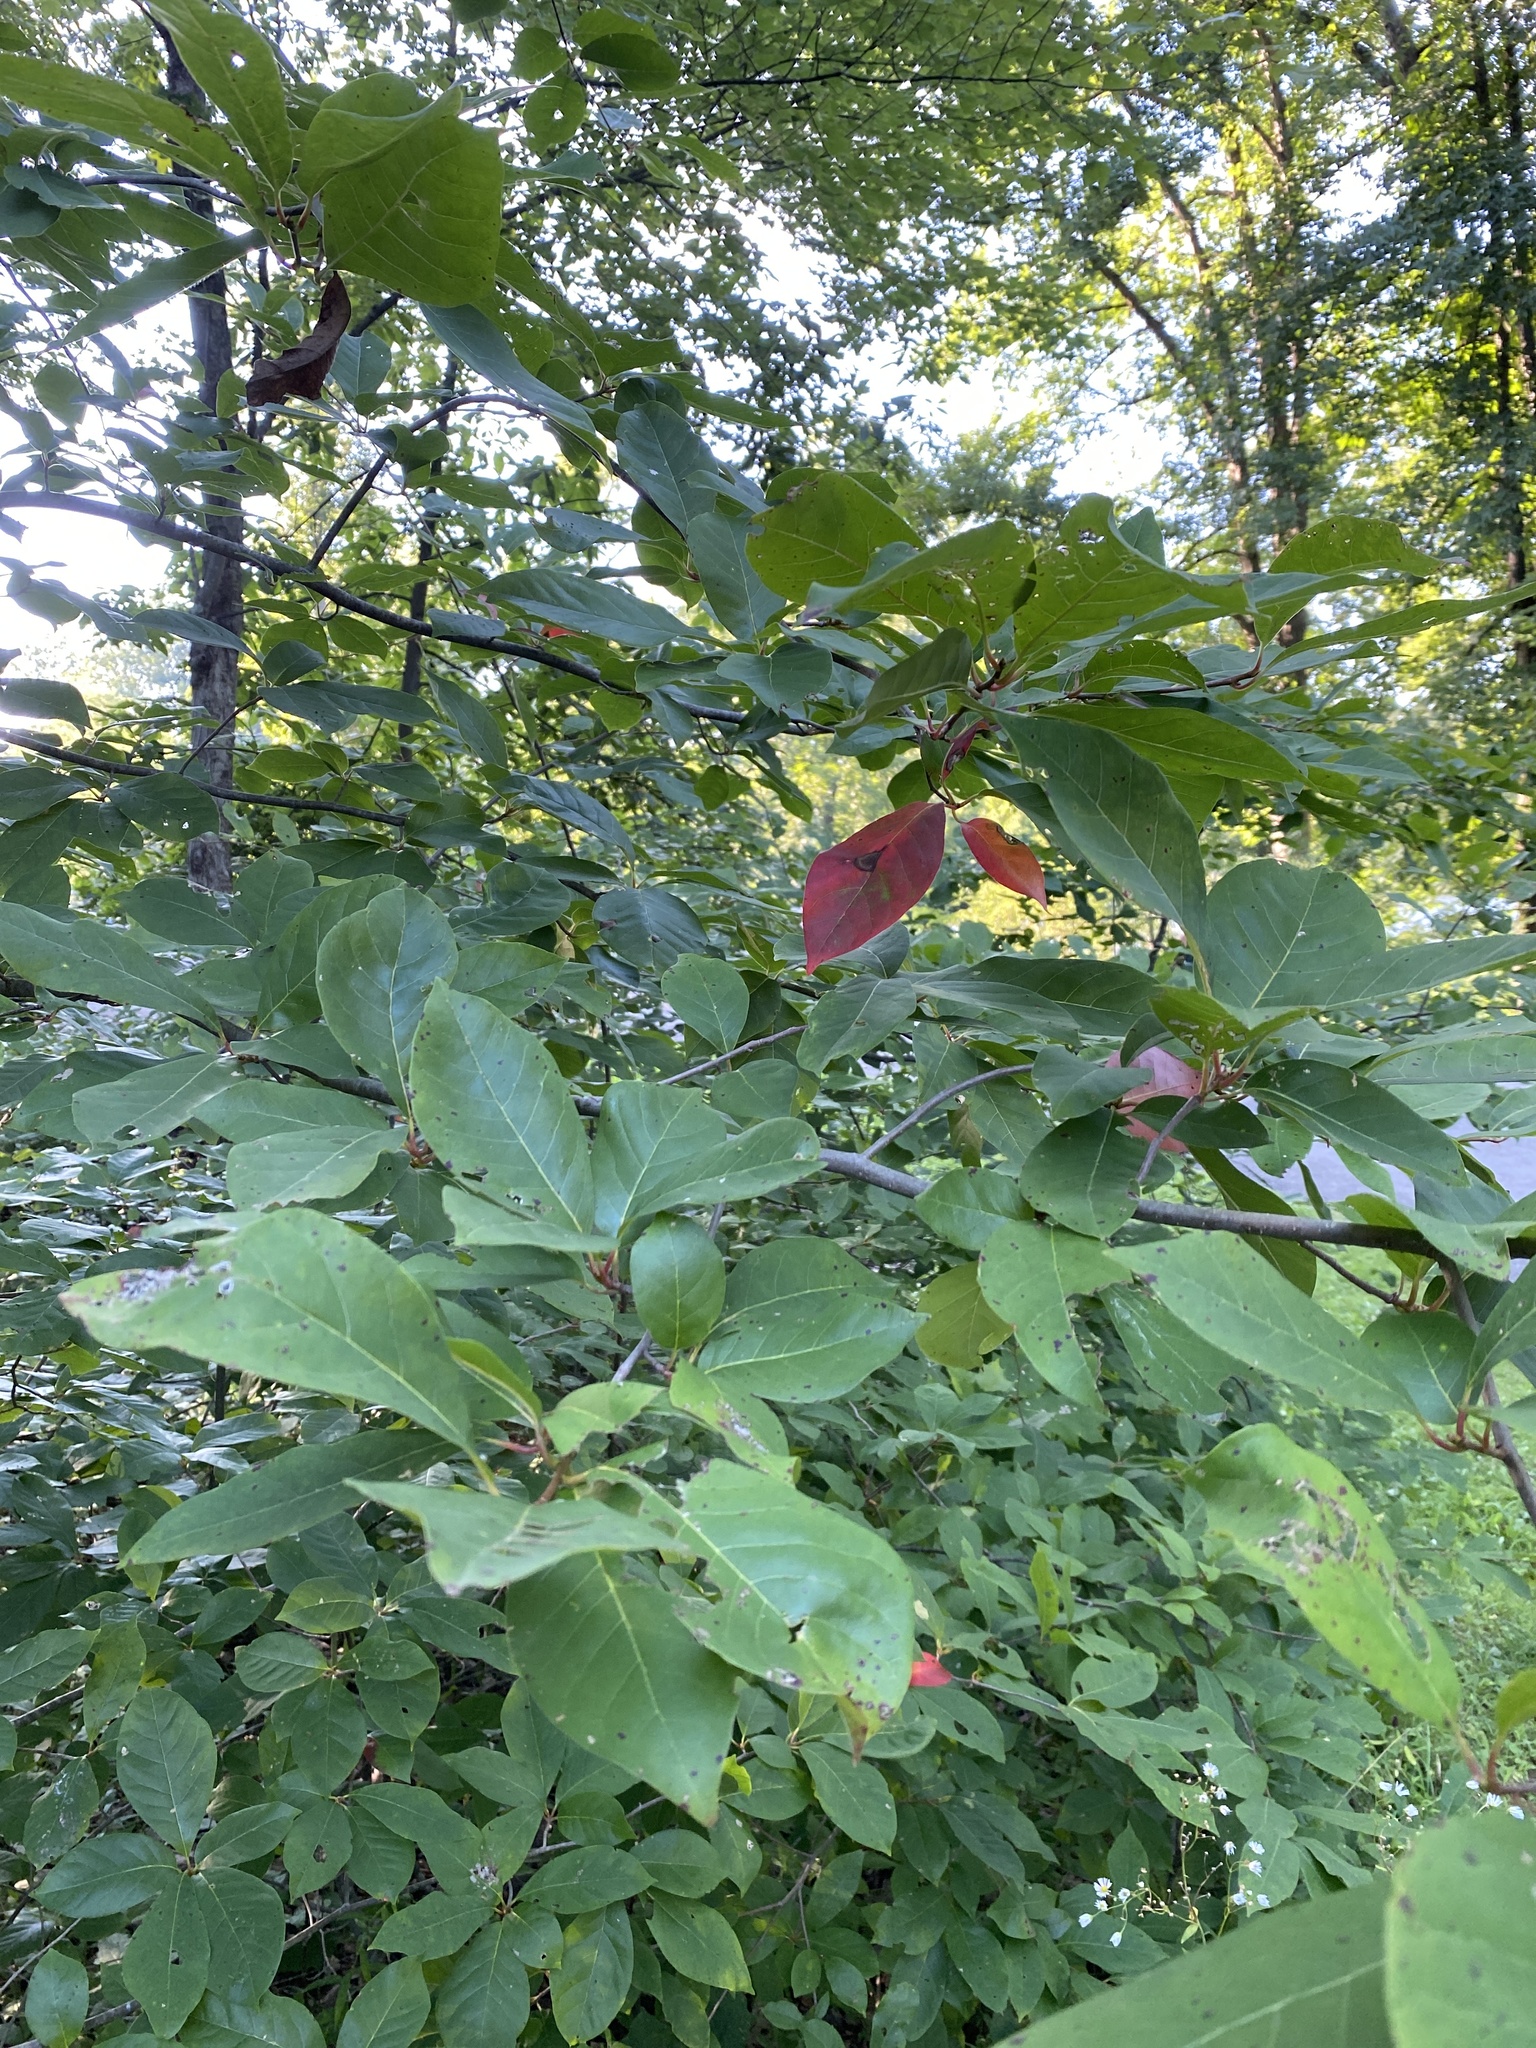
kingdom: Plantae
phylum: Tracheophyta
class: Magnoliopsida
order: Cornales
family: Nyssaceae
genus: Nyssa
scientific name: Nyssa sylvatica
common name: Black tupelo
